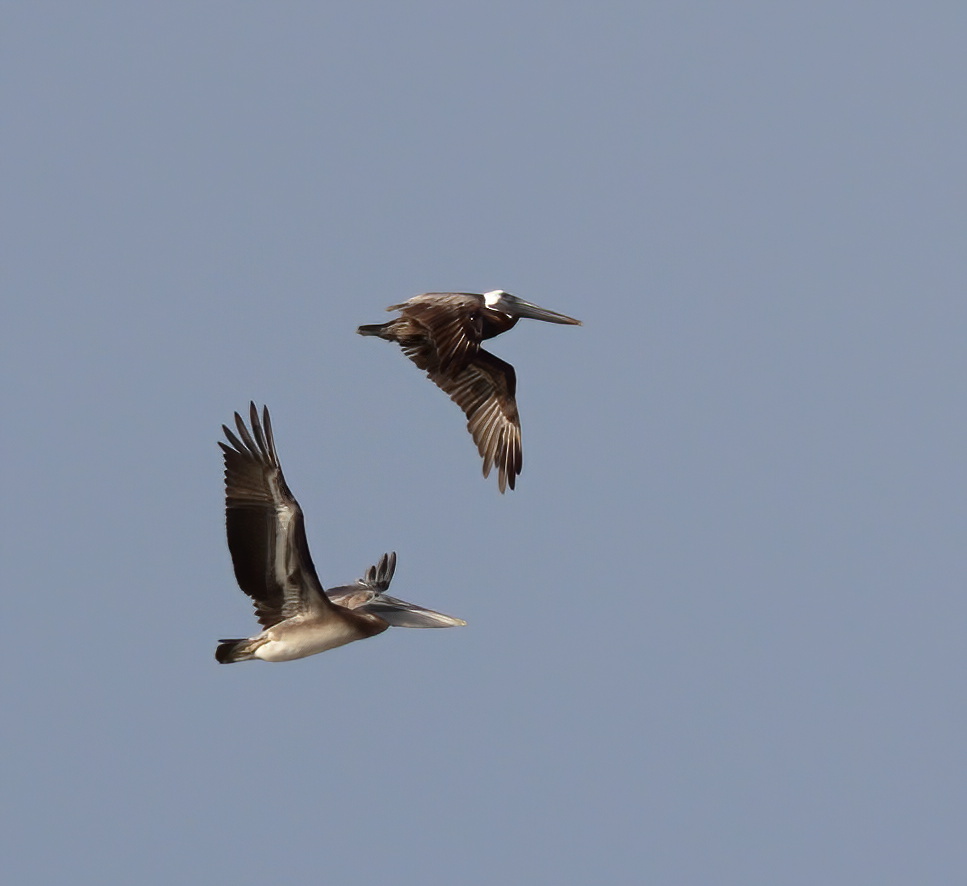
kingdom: Animalia
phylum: Chordata
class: Aves
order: Pelecaniformes
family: Pelecanidae
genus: Pelecanus
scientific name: Pelecanus occidentalis
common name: Brown pelican
